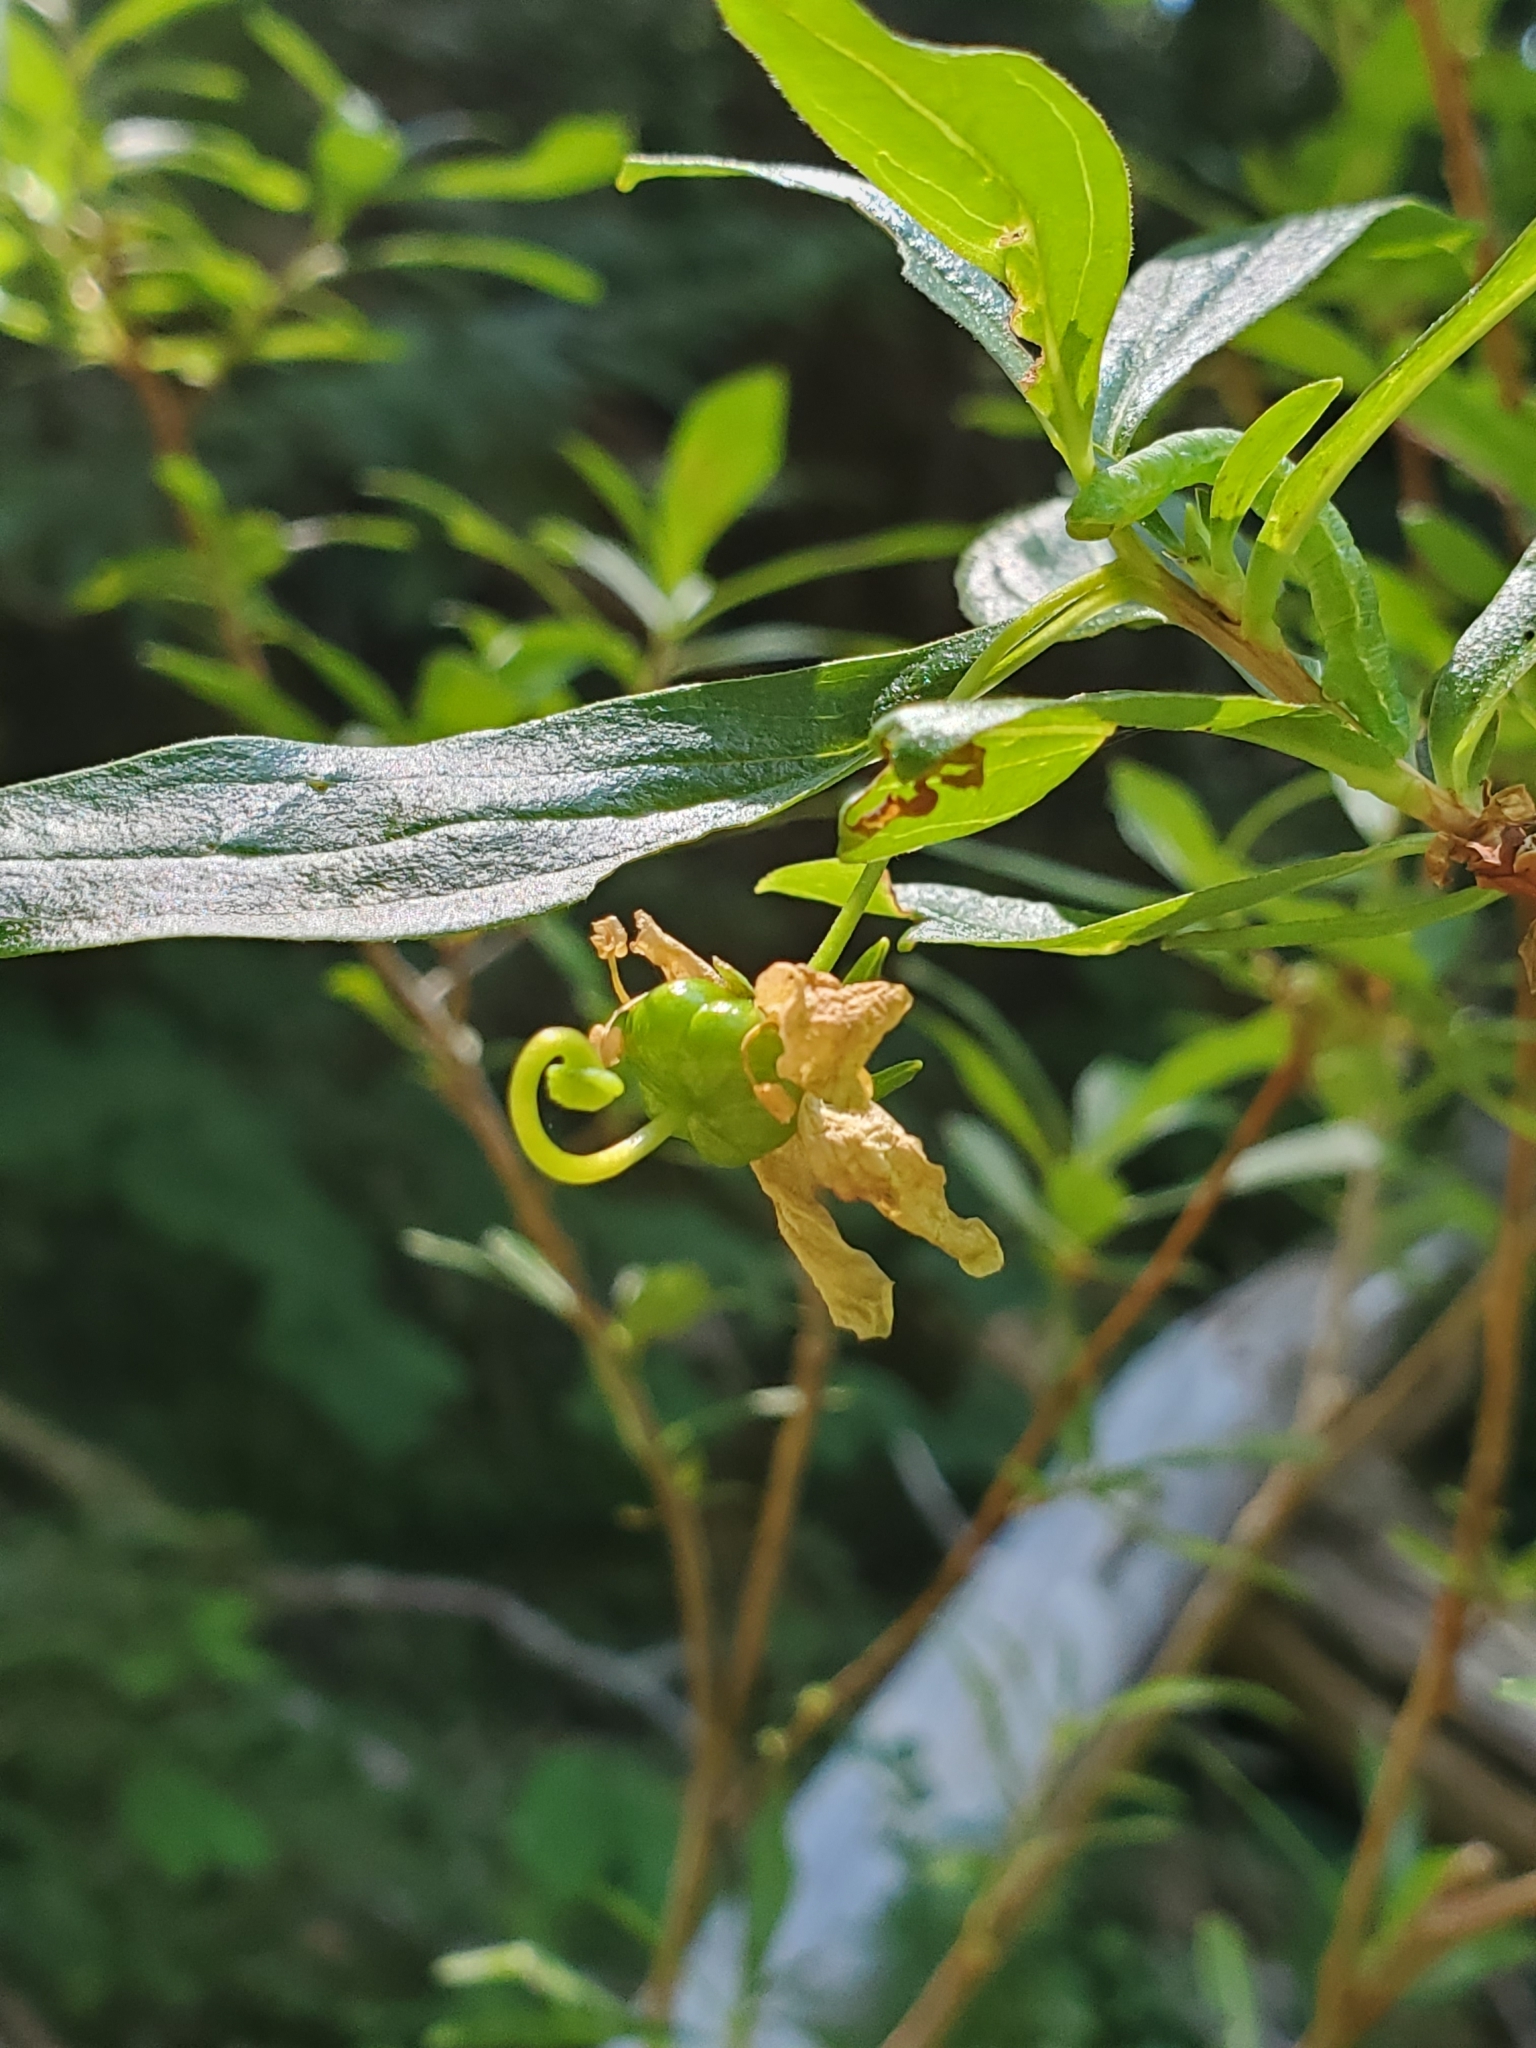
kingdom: Plantae
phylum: Tracheophyta
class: Magnoliopsida
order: Ericales
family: Ericaceae
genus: Elliottia
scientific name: Elliottia pyroliflora
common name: Copperbush
